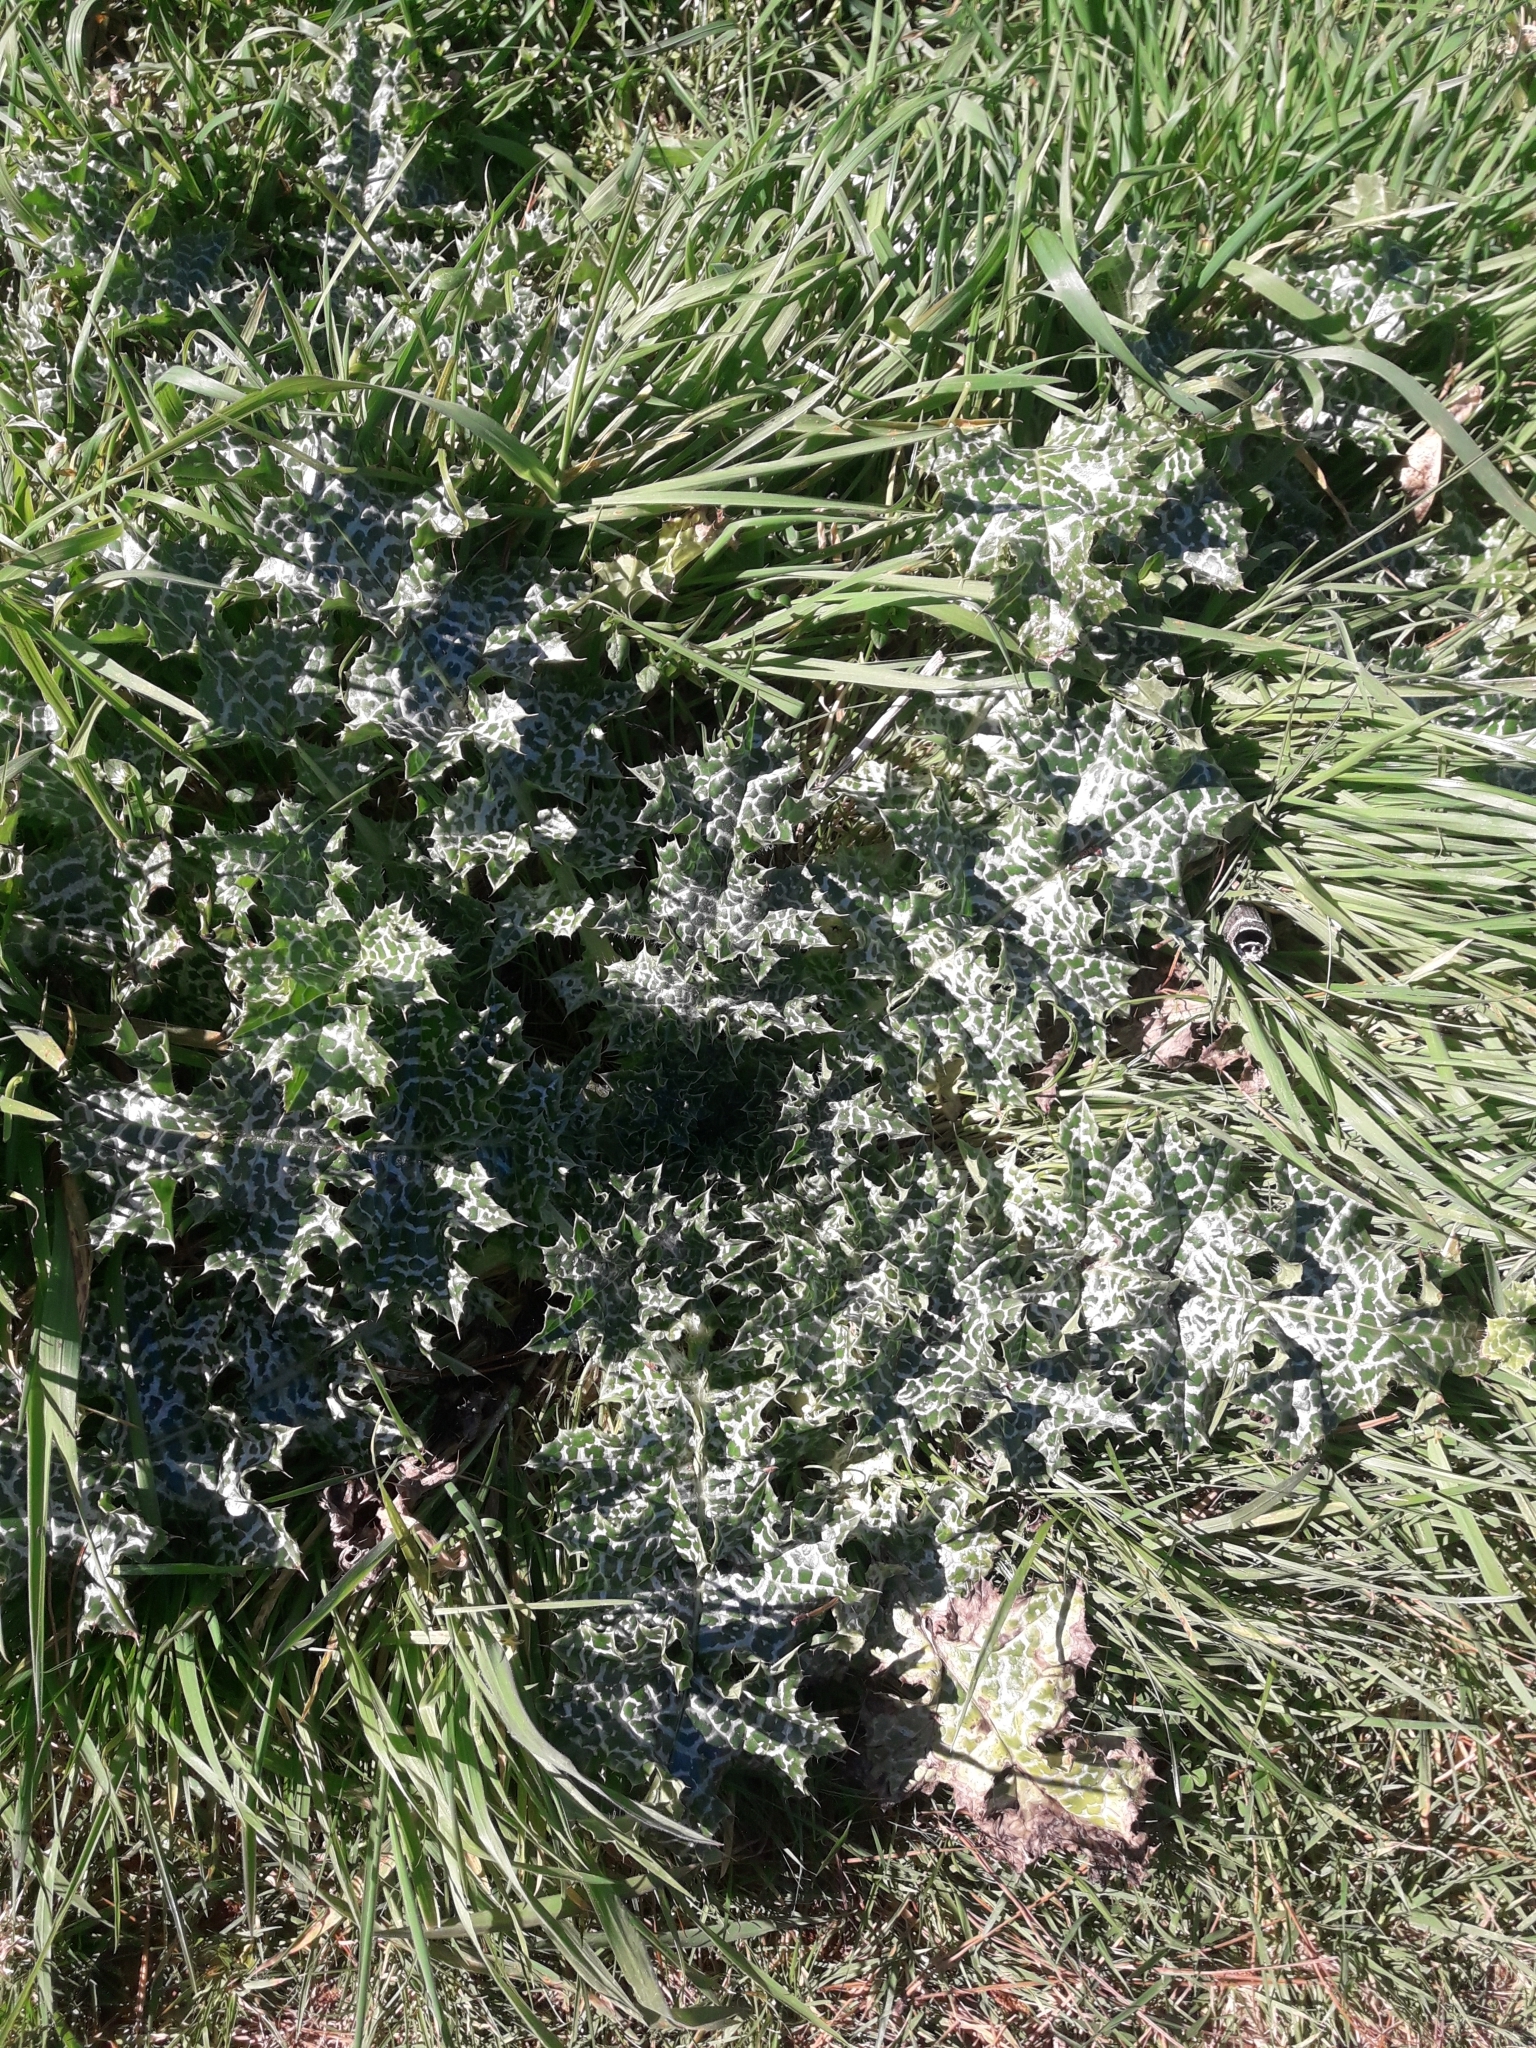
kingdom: Plantae
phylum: Tracheophyta
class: Magnoliopsida
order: Asterales
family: Asteraceae
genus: Silybum
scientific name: Silybum marianum
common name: Milk thistle
